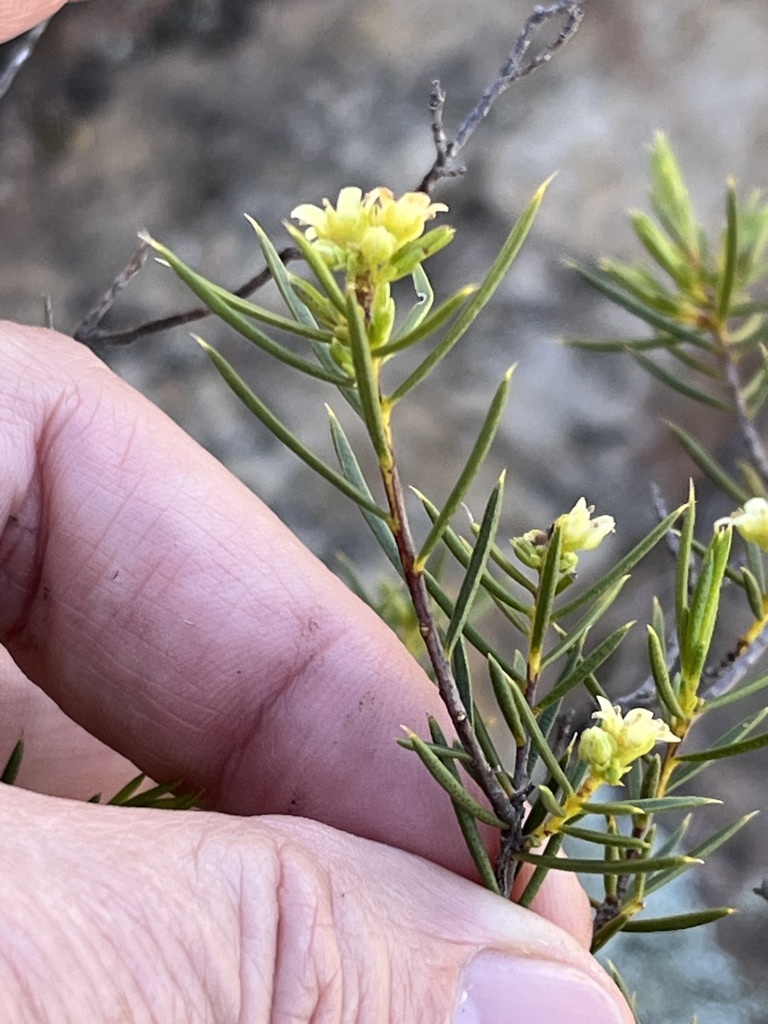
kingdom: Plantae
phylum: Tracheophyta
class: Magnoliopsida
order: Sapindales
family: Rutaceae
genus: Diosma
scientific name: Diosma acmaeophylla
